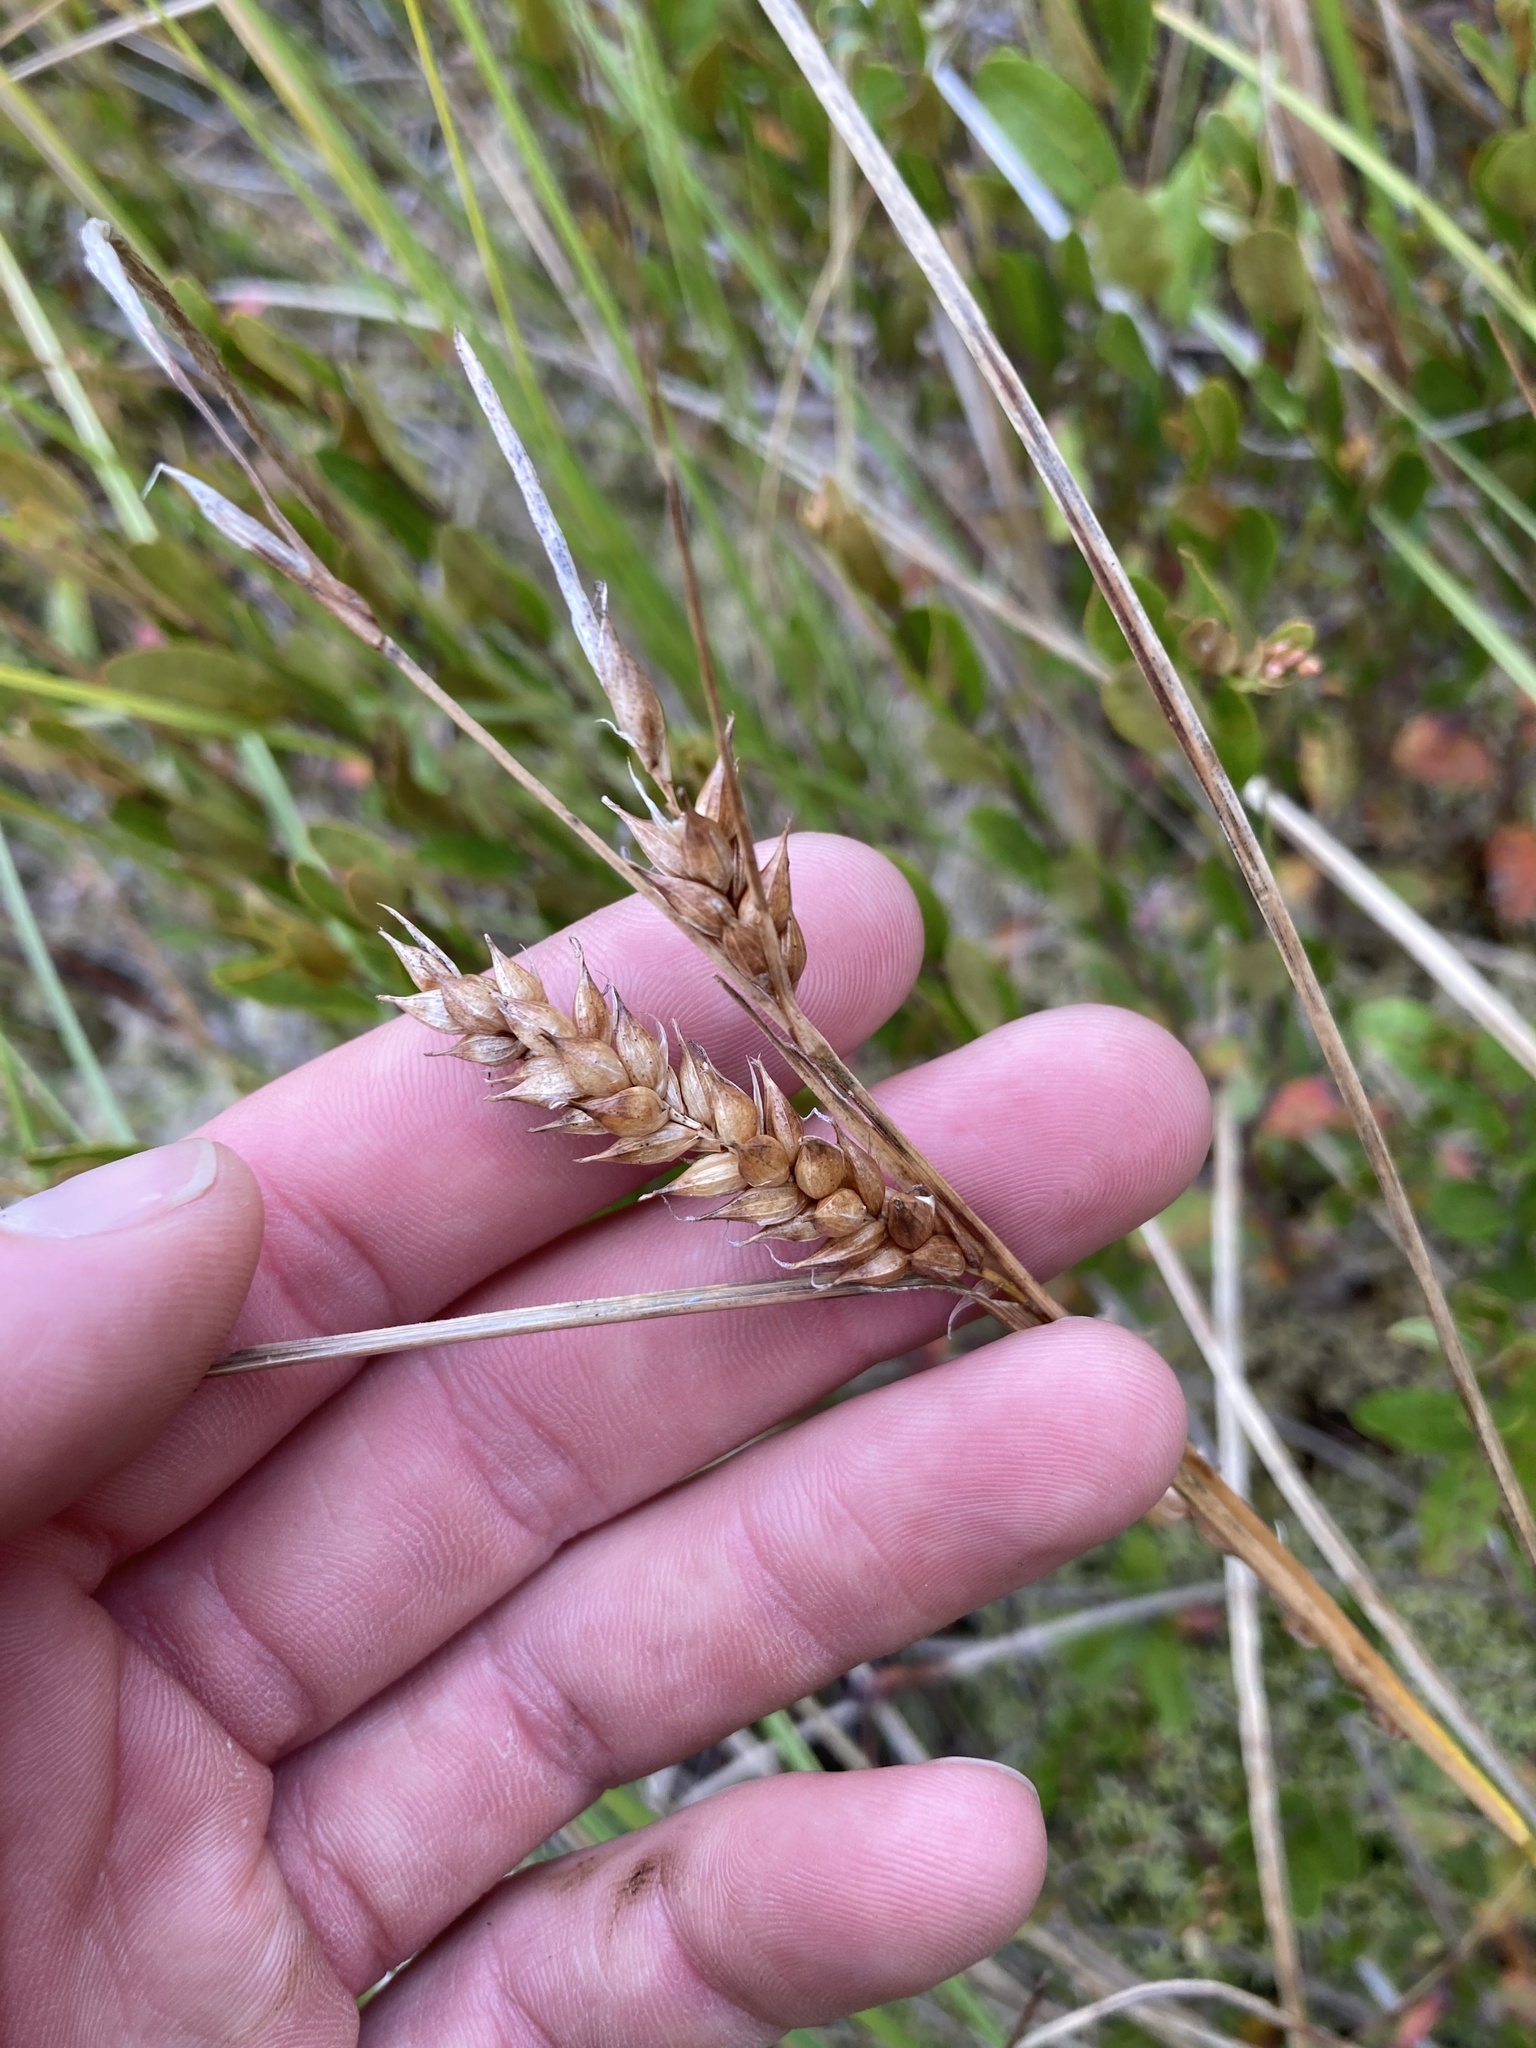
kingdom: Plantae
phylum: Tracheophyta
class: Liliopsida
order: Poales
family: Cyperaceae
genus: Carex
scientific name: Carex vesicaria
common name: Bladder-sedge
